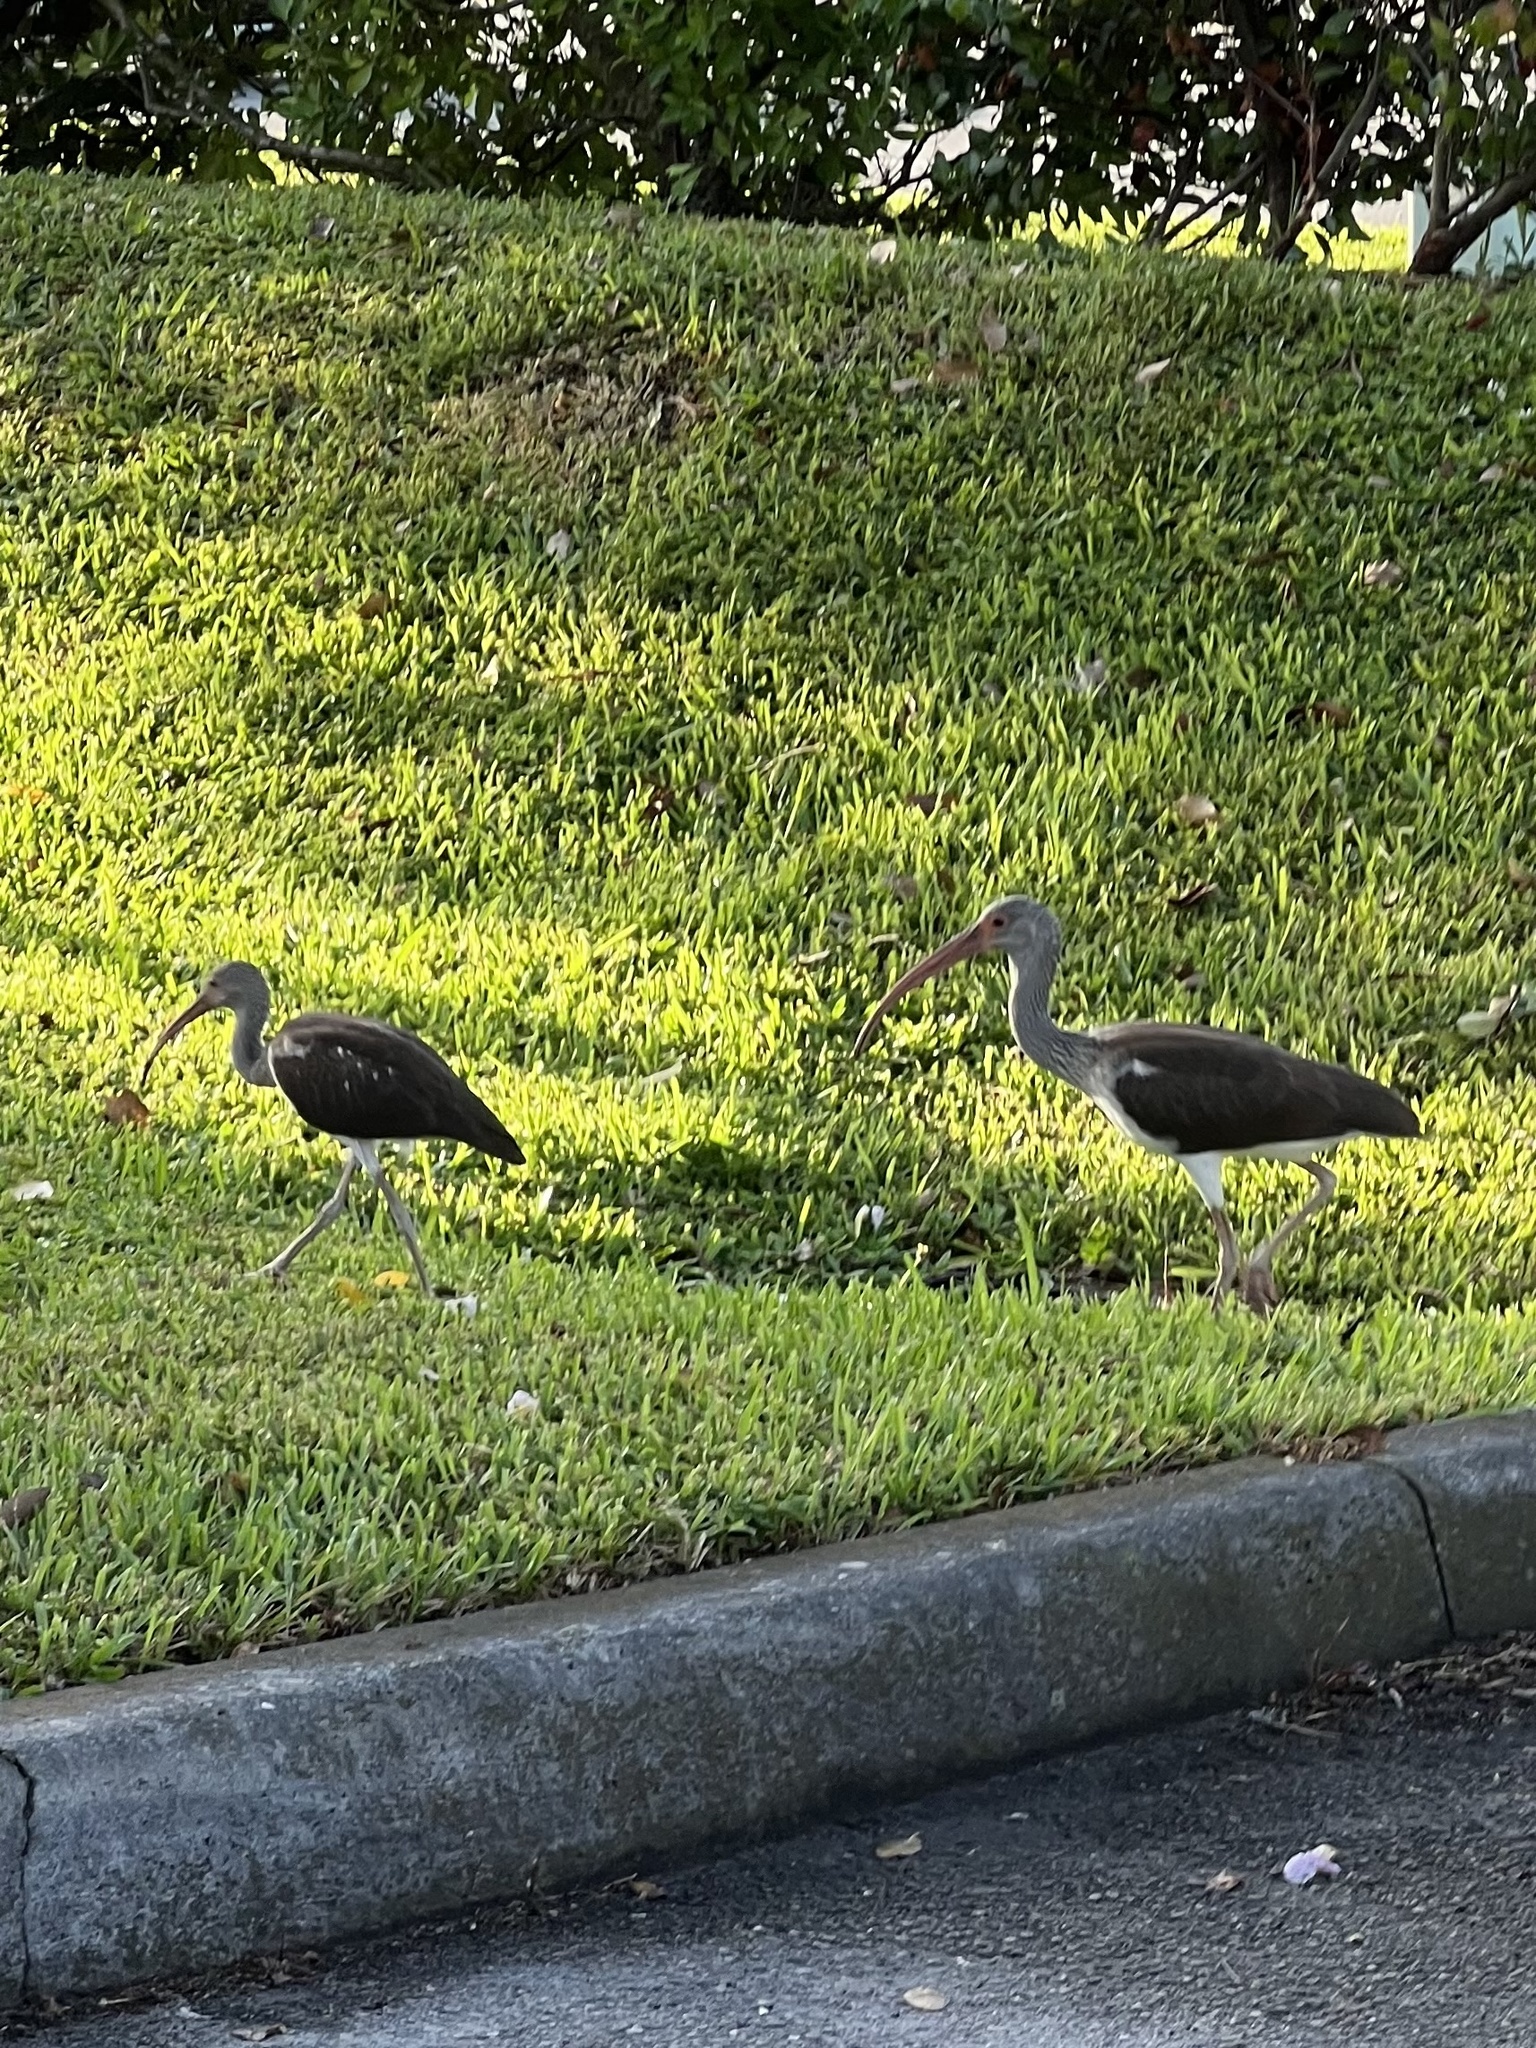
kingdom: Animalia
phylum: Chordata
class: Aves
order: Pelecaniformes
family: Threskiornithidae
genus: Eudocimus
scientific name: Eudocimus albus
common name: White ibis
